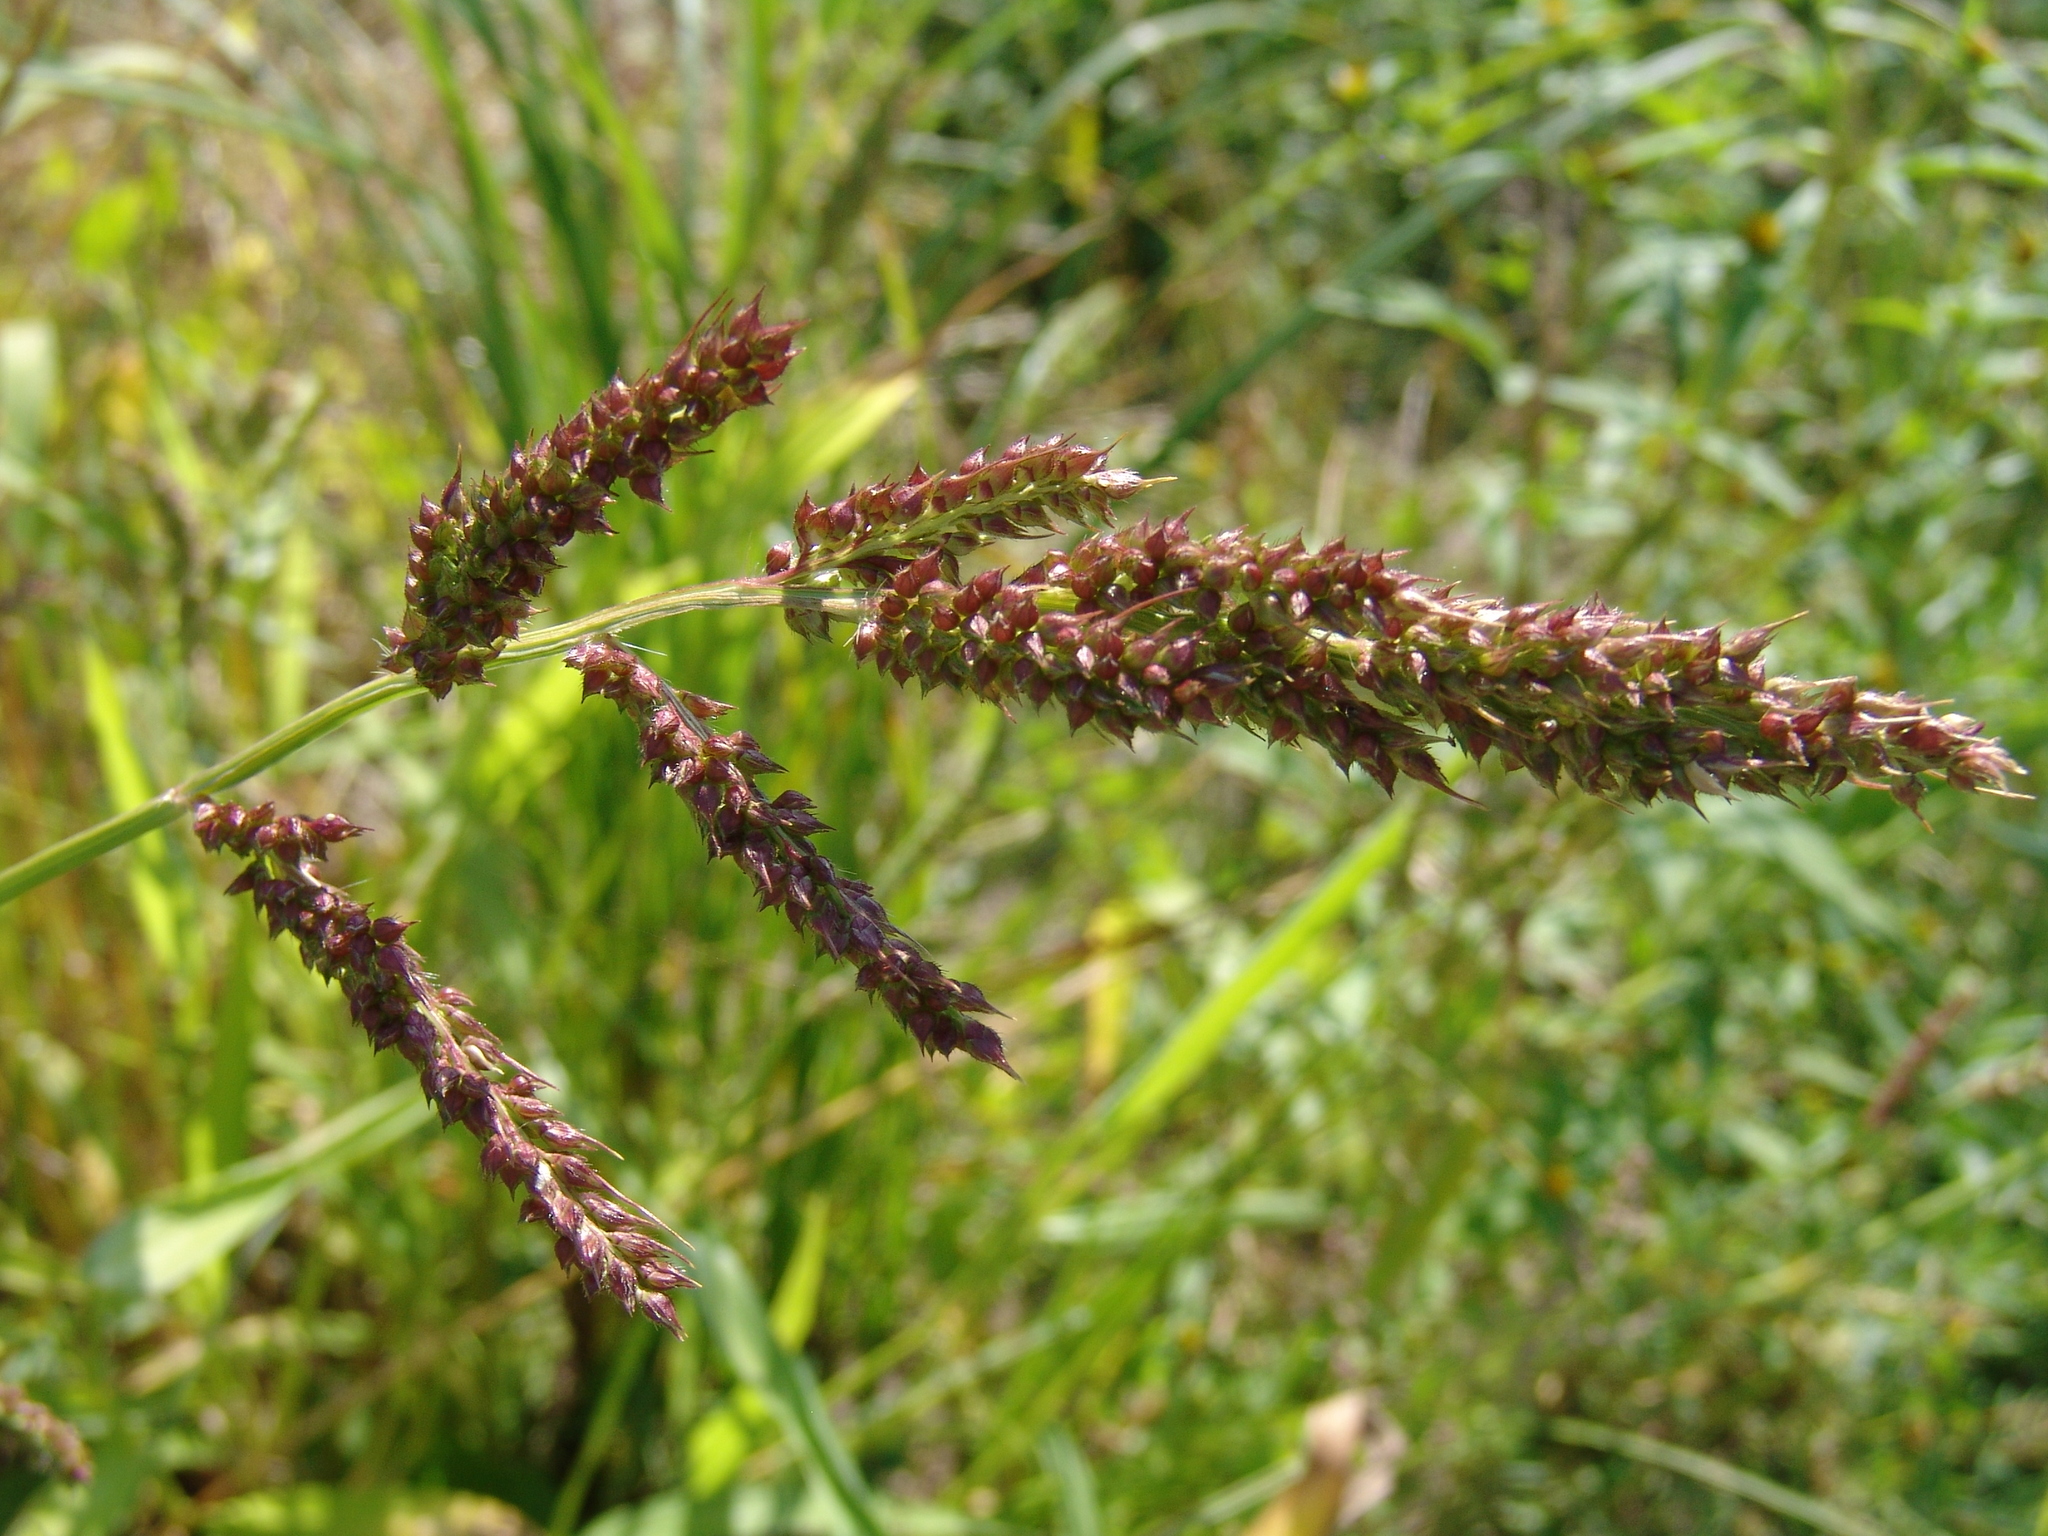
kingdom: Plantae
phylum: Tracheophyta
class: Liliopsida
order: Poales
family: Poaceae
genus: Echinochloa
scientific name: Echinochloa crus-galli
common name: Cockspur
